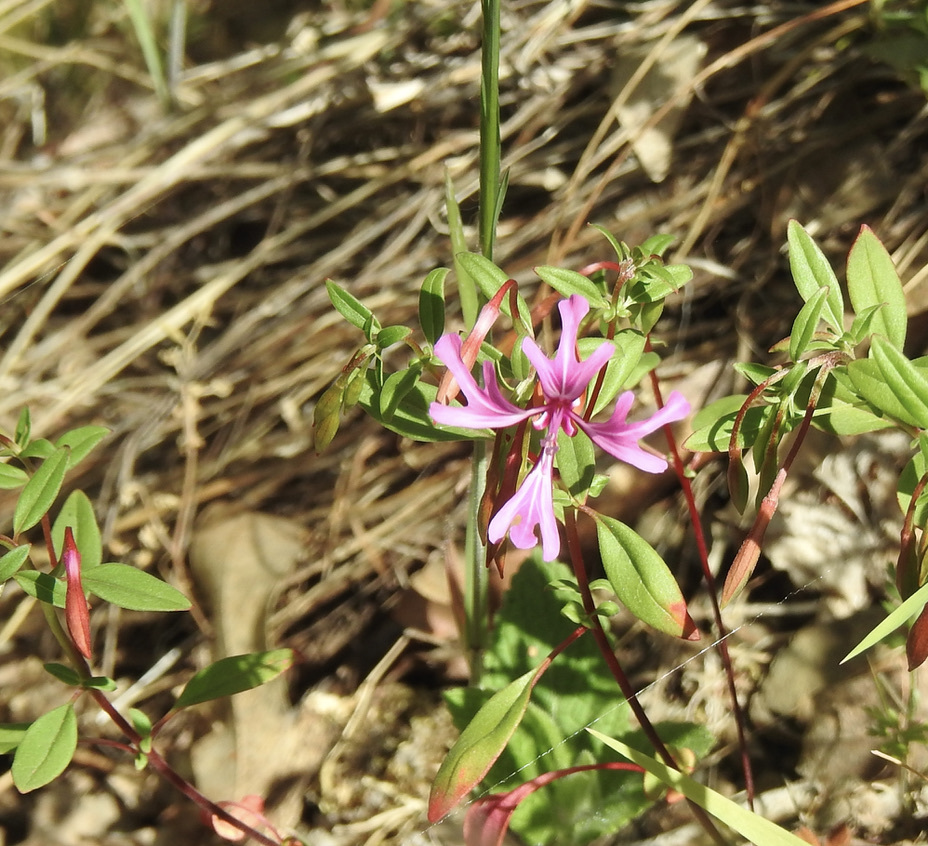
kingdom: Plantae
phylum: Tracheophyta
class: Magnoliopsida
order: Myrtales
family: Onagraceae
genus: Clarkia
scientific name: Clarkia concinna
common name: Red-ribbons
